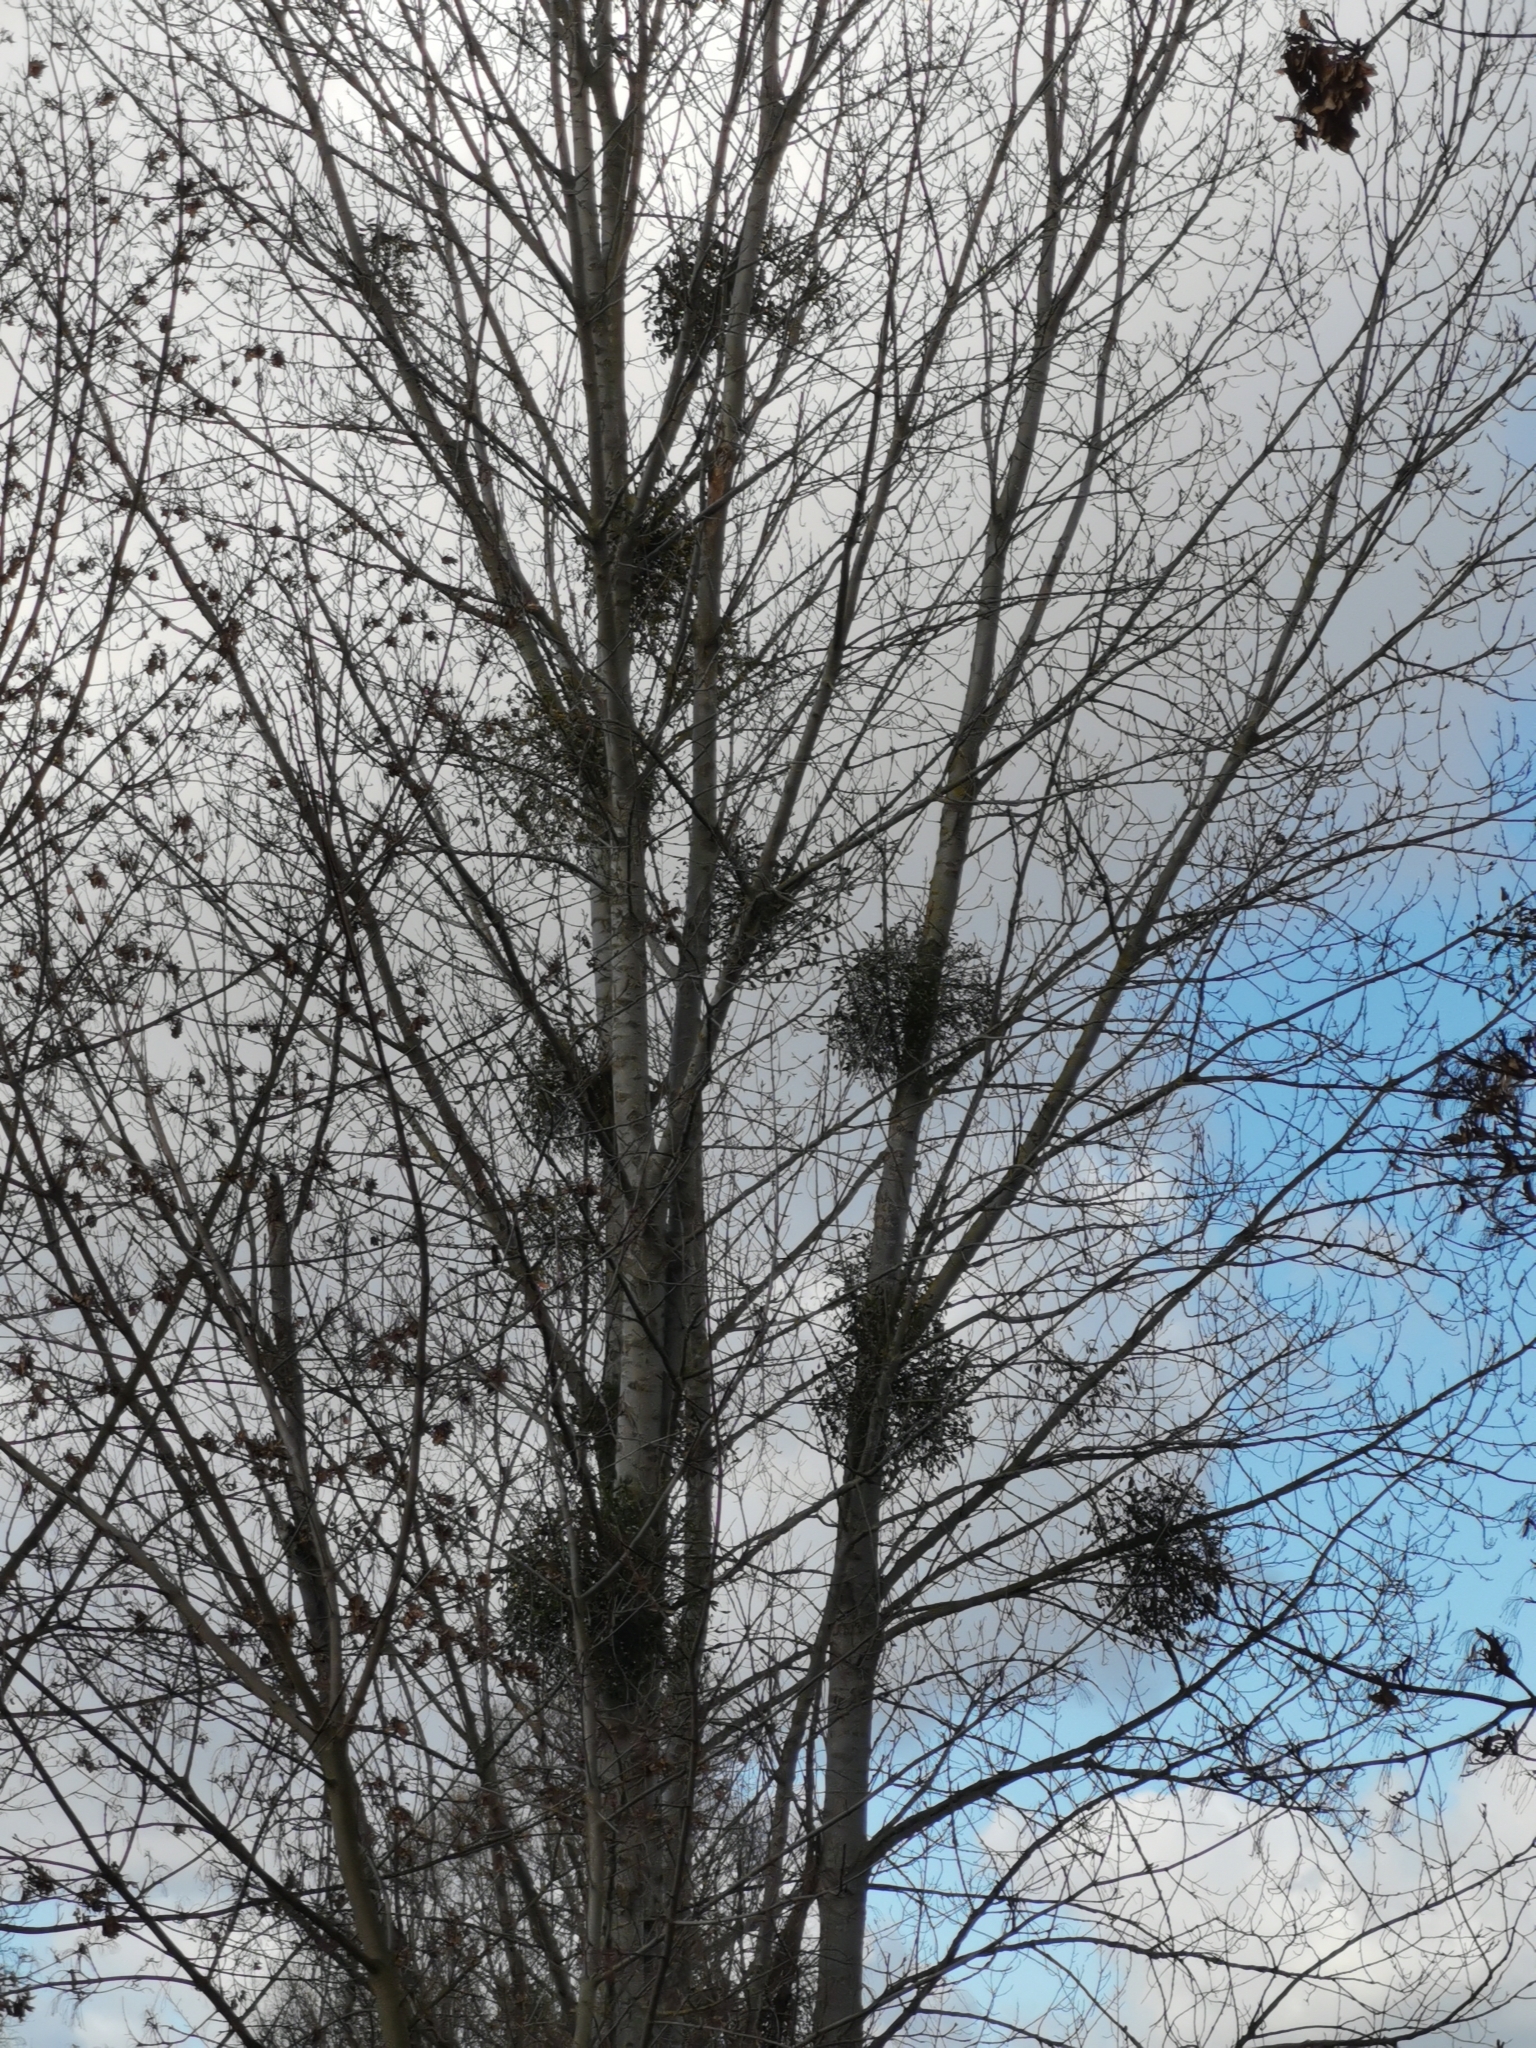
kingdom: Plantae
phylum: Tracheophyta
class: Magnoliopsida
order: Santalales
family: Viscaceae
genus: Viscum
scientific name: Viscum album
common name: Mistletoe
